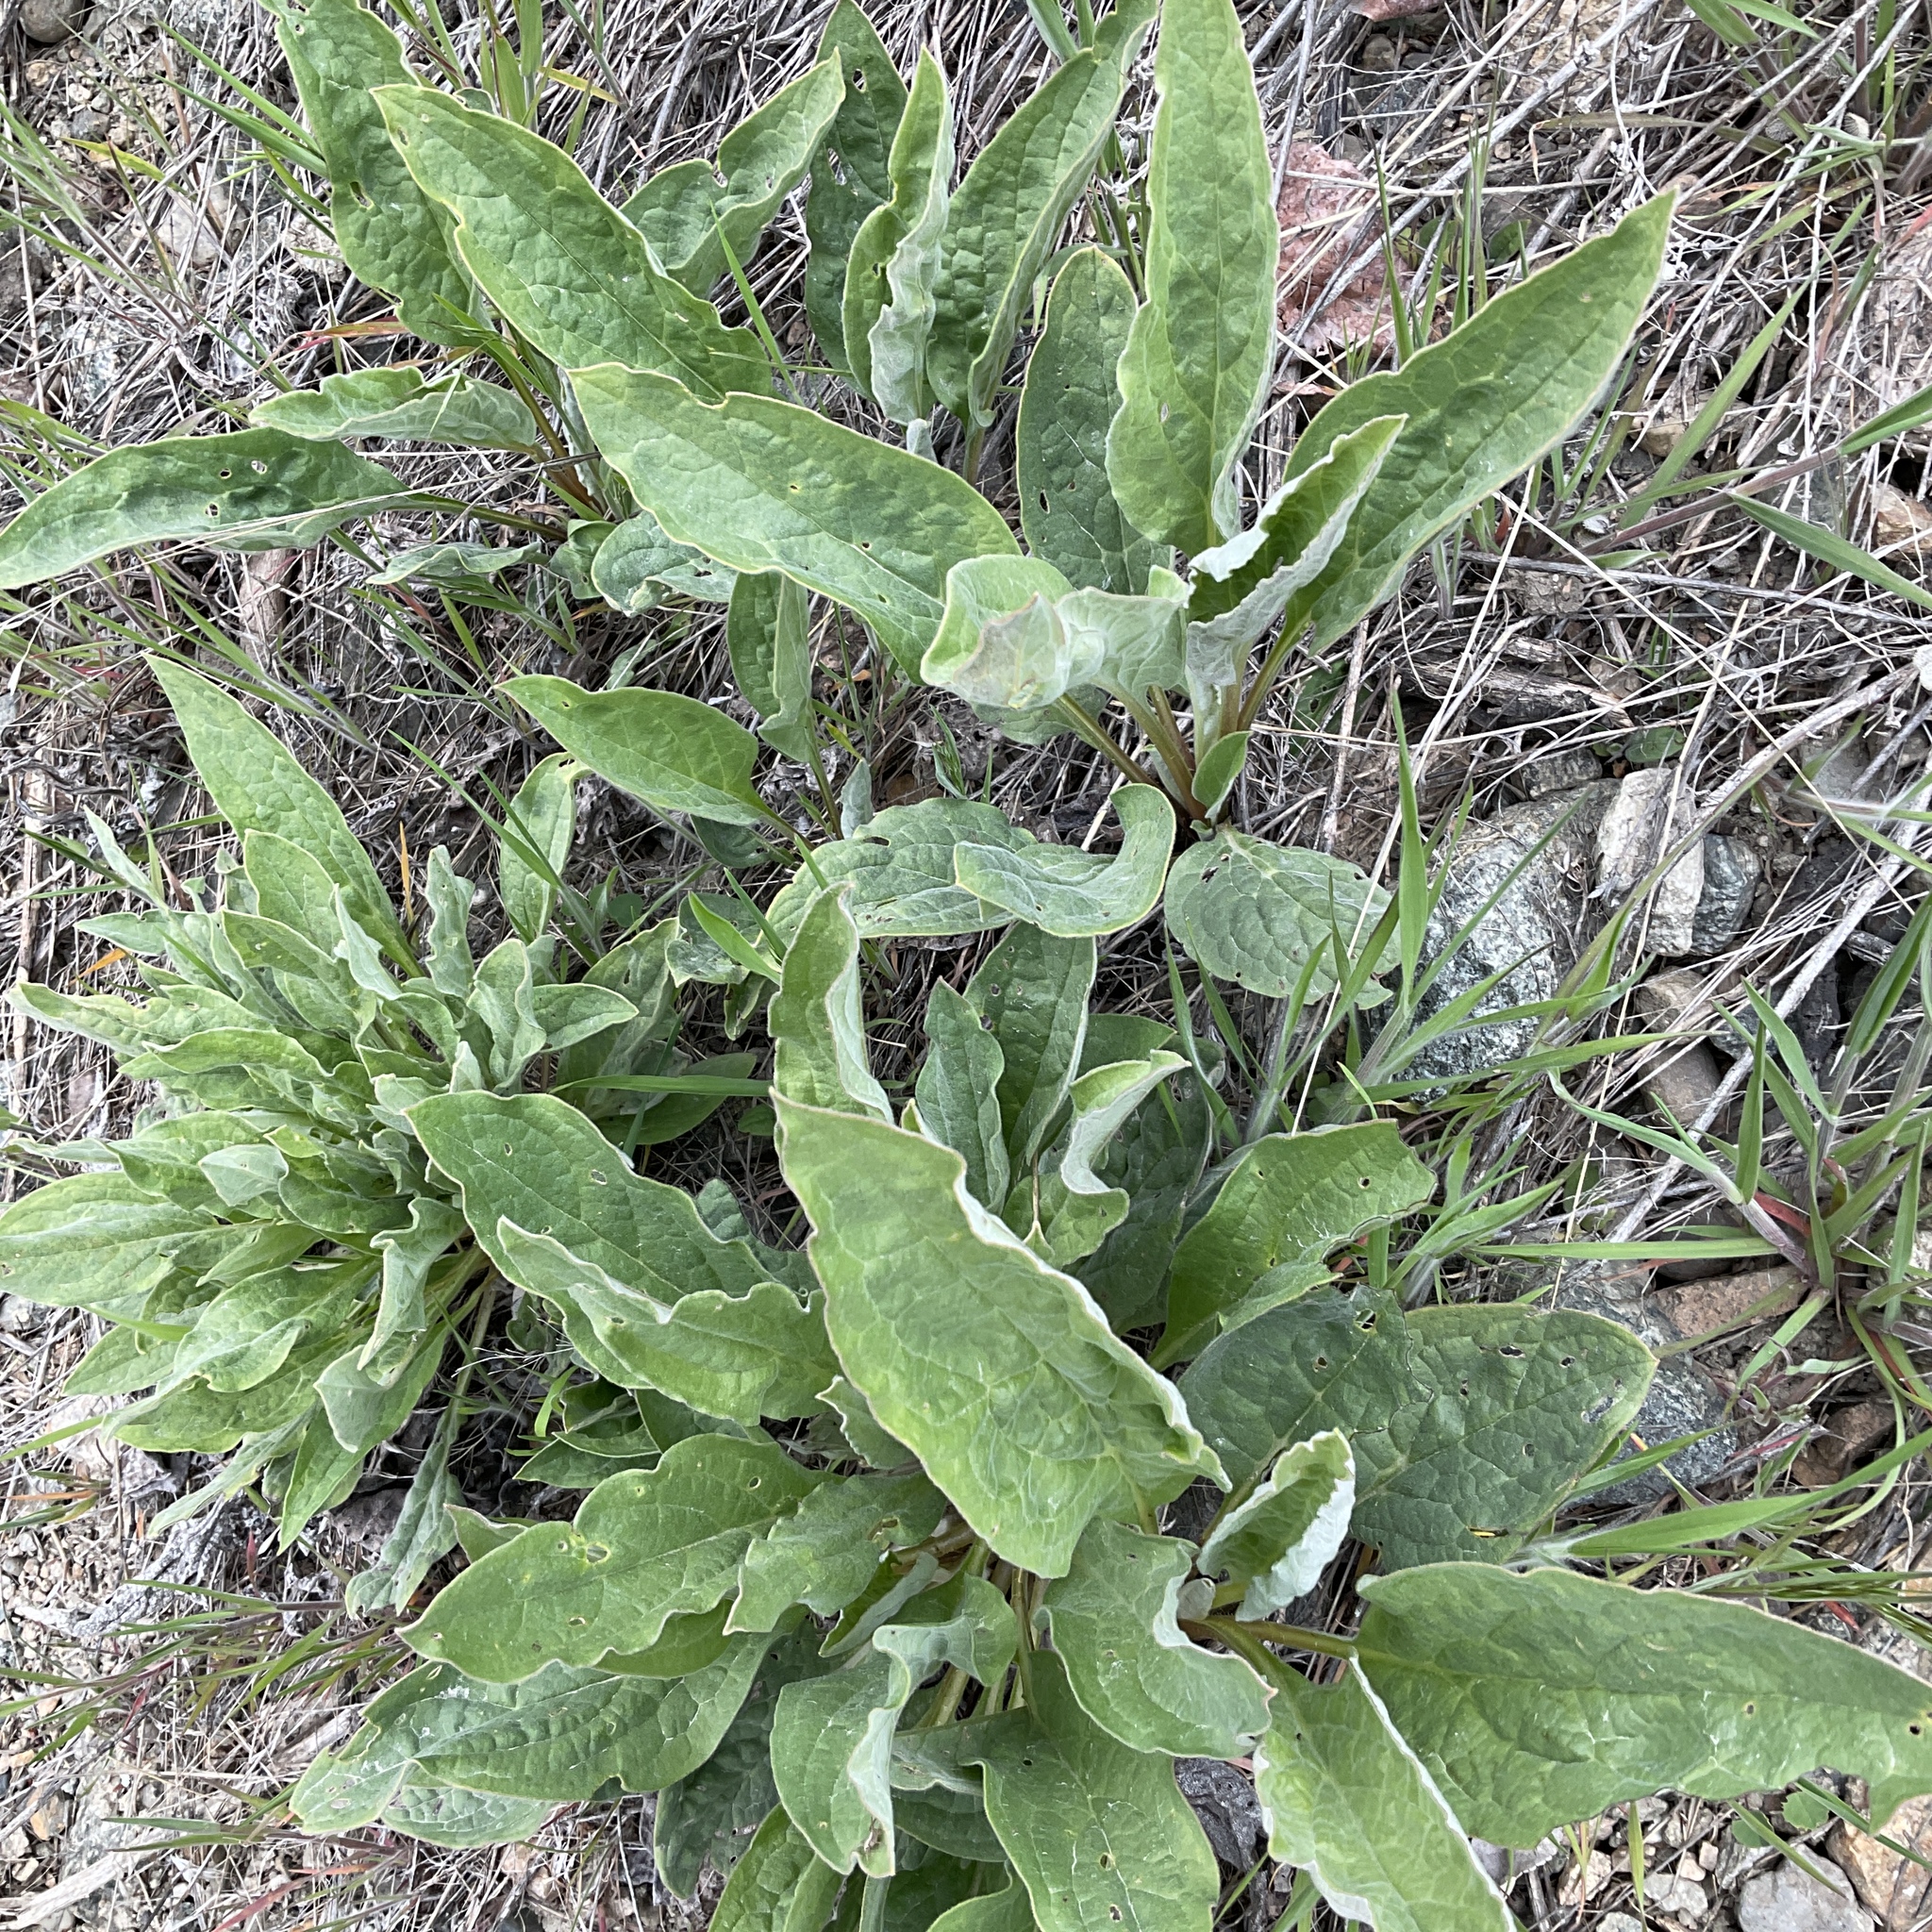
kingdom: Plantae
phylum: Tracheophyta
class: Magnoliopsida
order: Boraginales
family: Boraginaceae
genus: Cynoglossum
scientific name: Cynoglossum officinale
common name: Hound's-tongue
